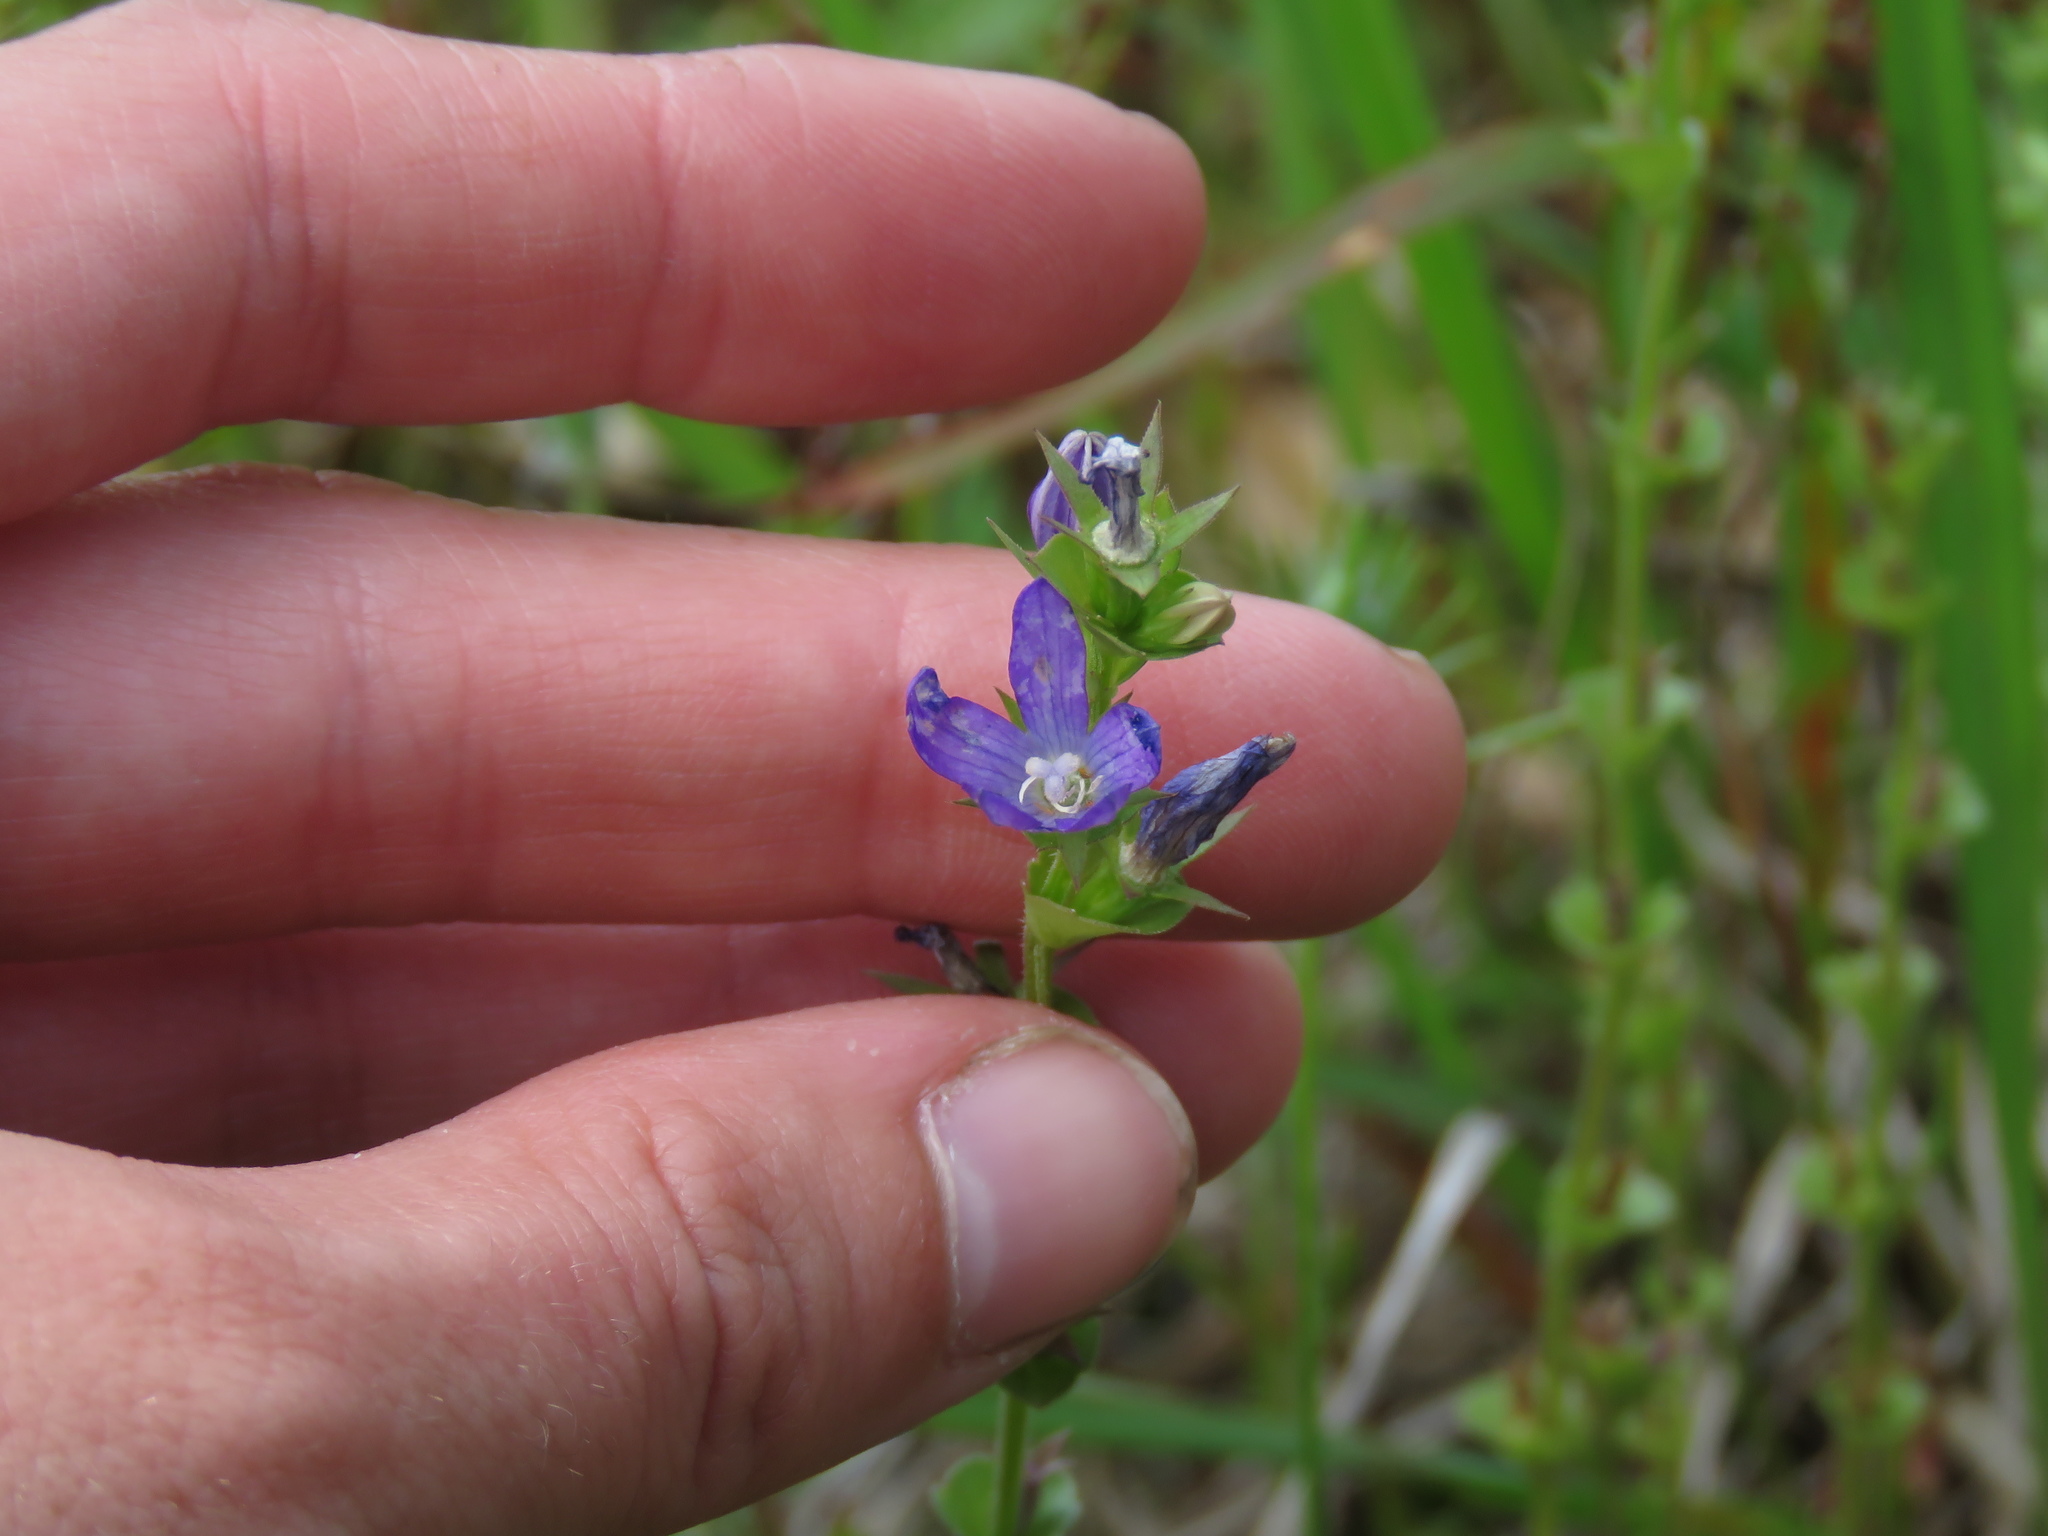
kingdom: Plantae
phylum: Tracheophyta
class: Magnoliopsida
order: Asterales
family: Campanulaceae
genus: Triodanis
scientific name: Triodanis perfoliata
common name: Clasping venus' looking-glass
